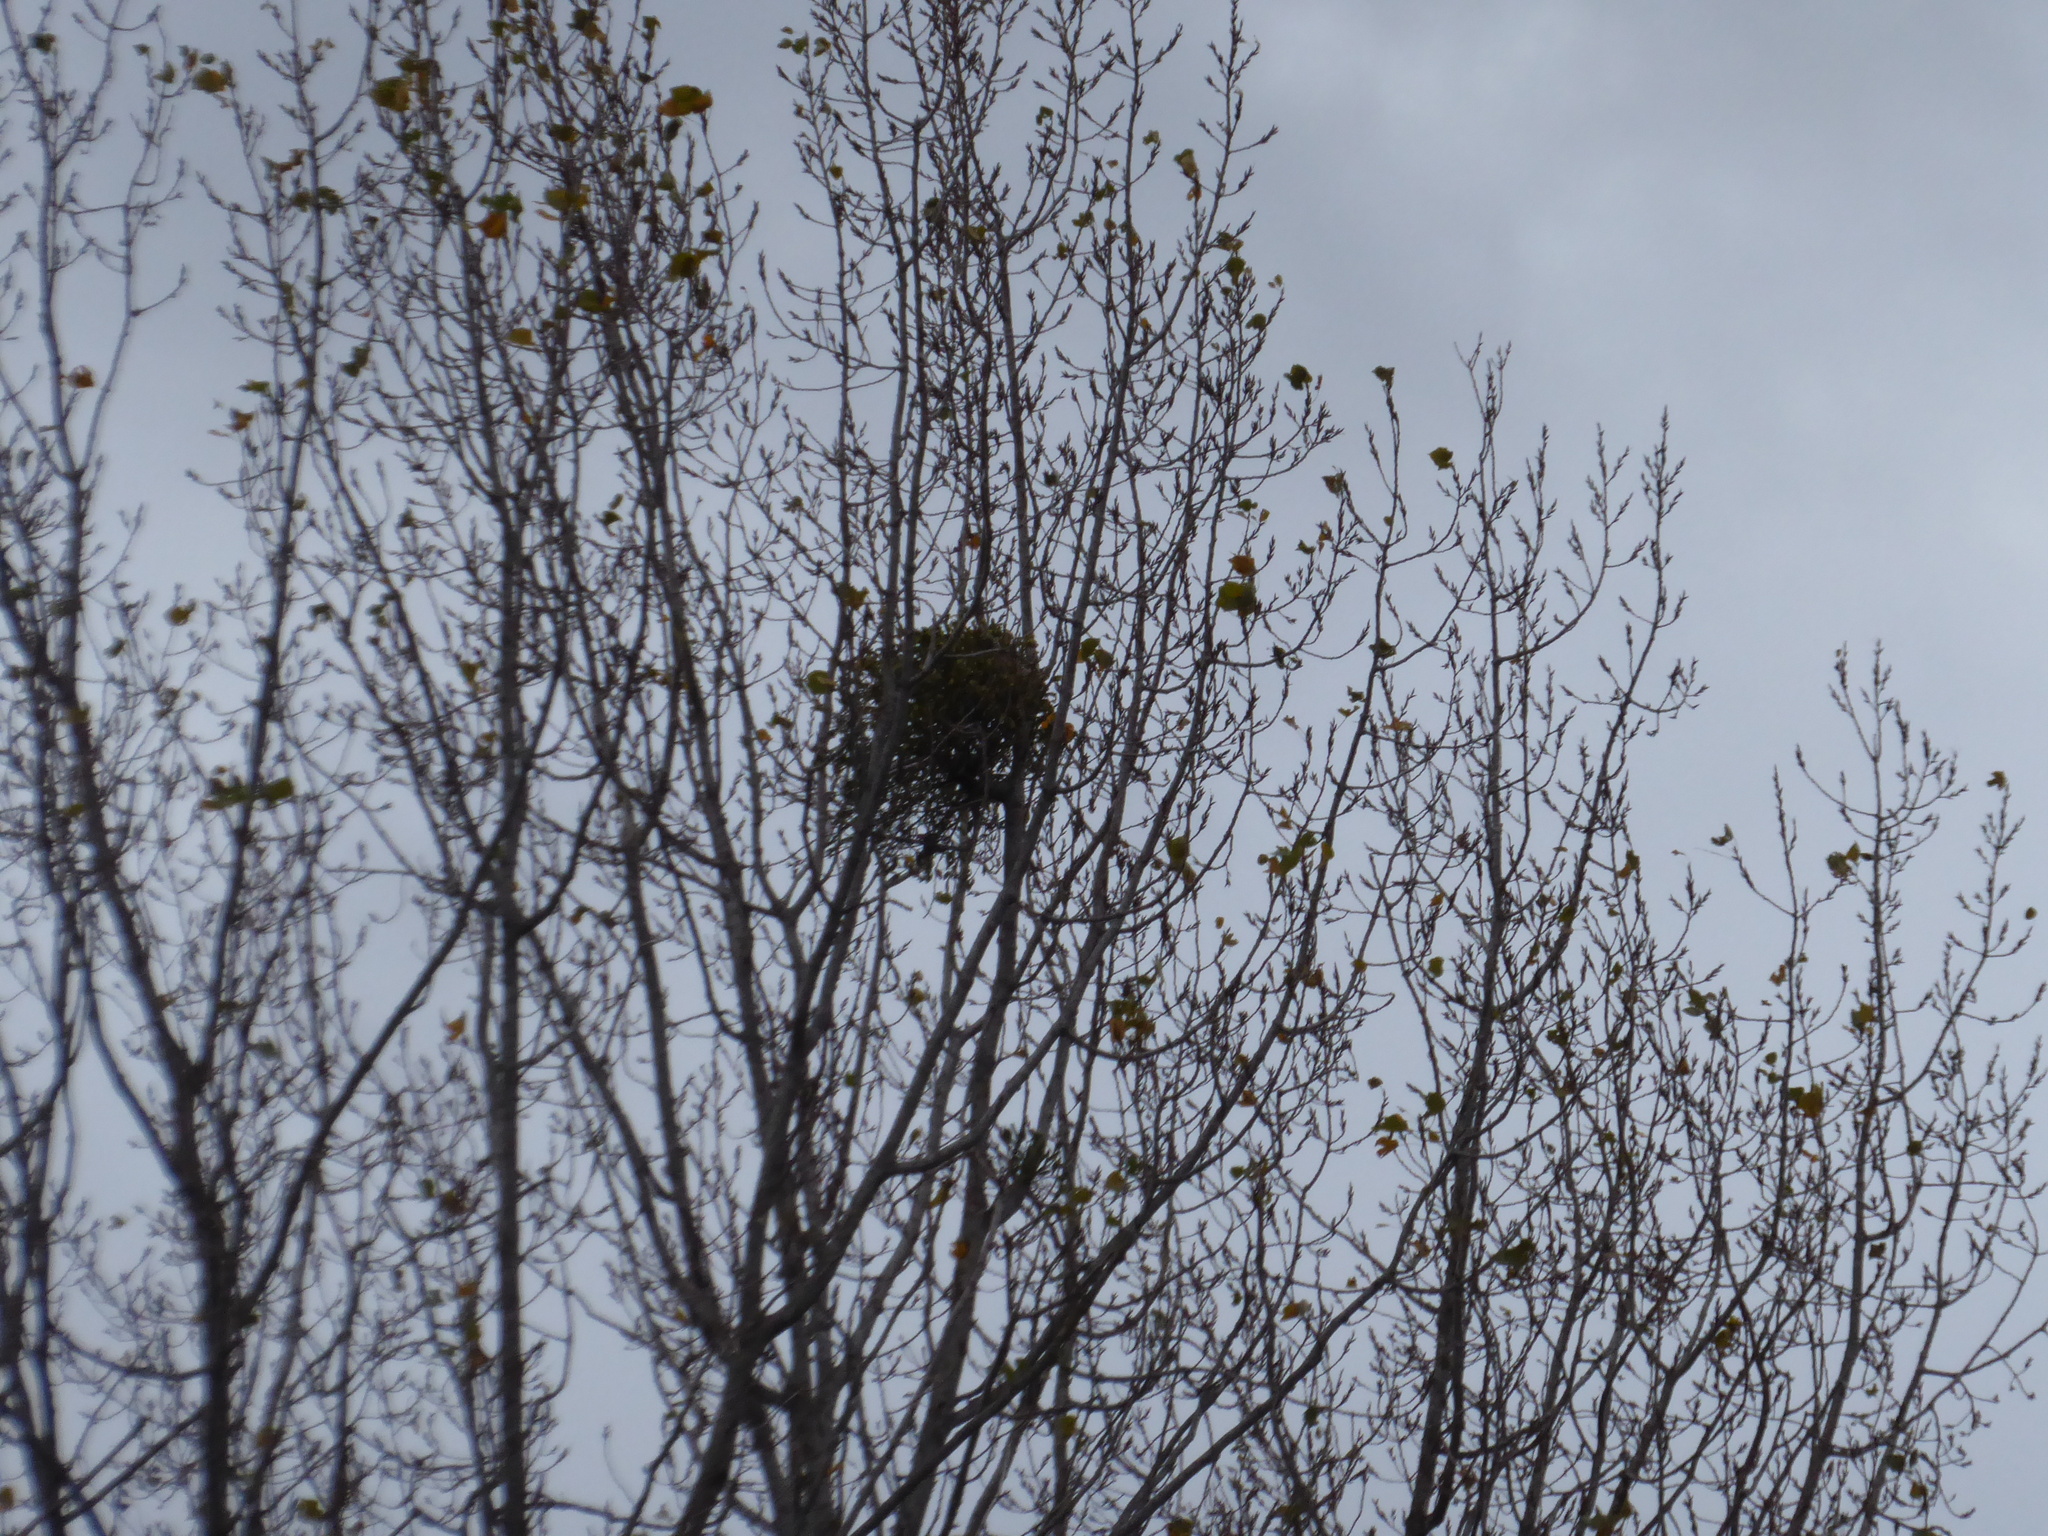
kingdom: Plantae
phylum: Tracheophyta
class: Magnoliopsida
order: Santalales
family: Viscaceae
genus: Viscum
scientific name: Viscum album
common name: Mistletoe
